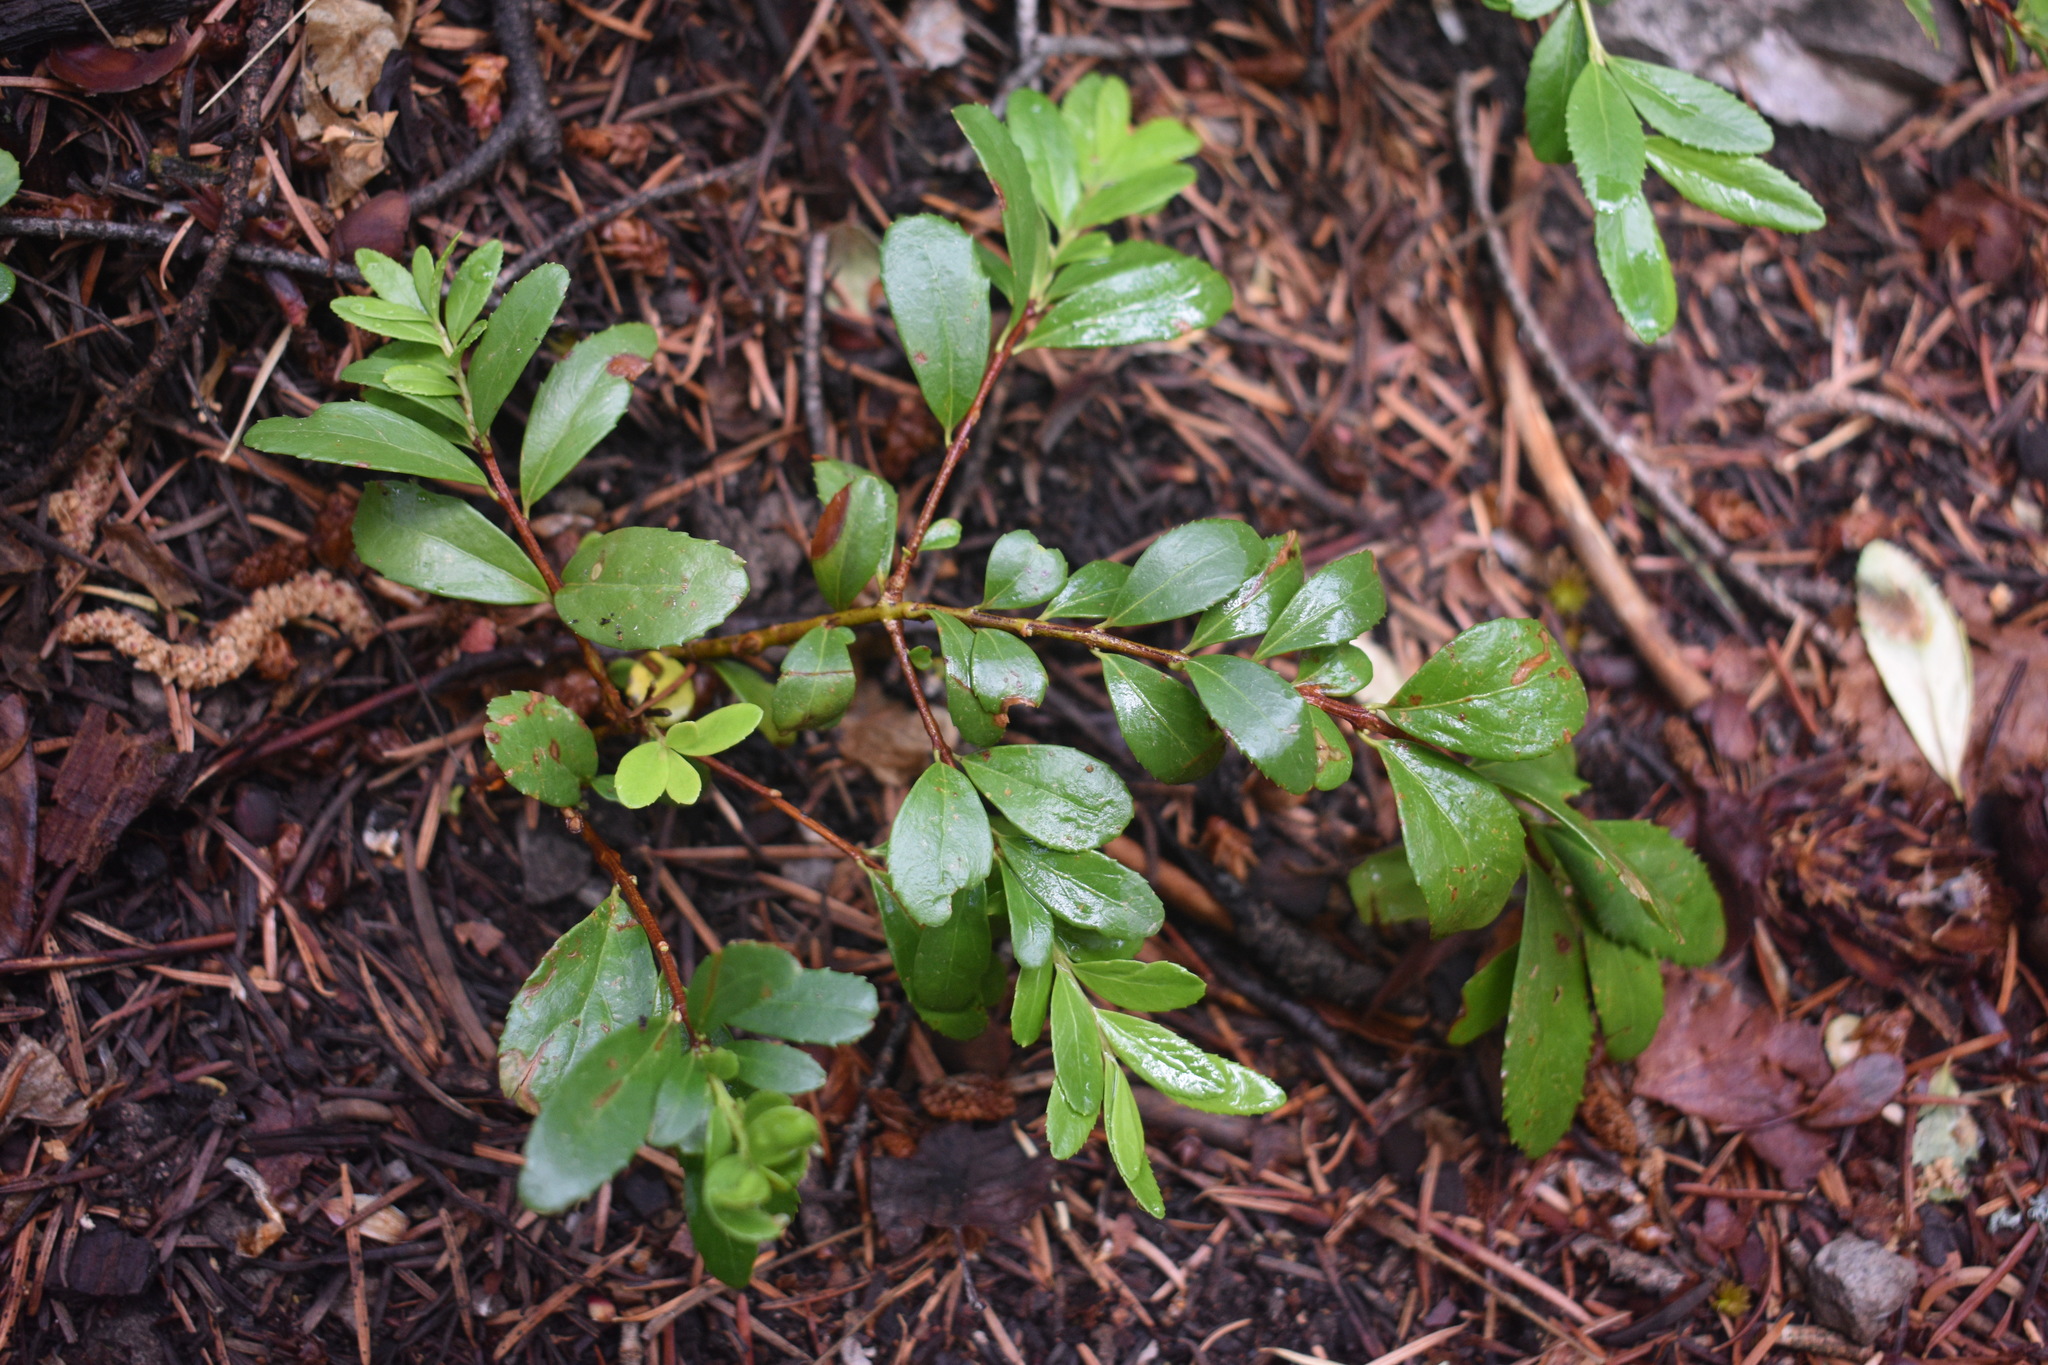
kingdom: Plantae
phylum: Tracheophyta
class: Magnoliopsida
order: Celastrales
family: Celastraceae
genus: Paxistima
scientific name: Paxistima myrsinites
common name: Mountain-lover
